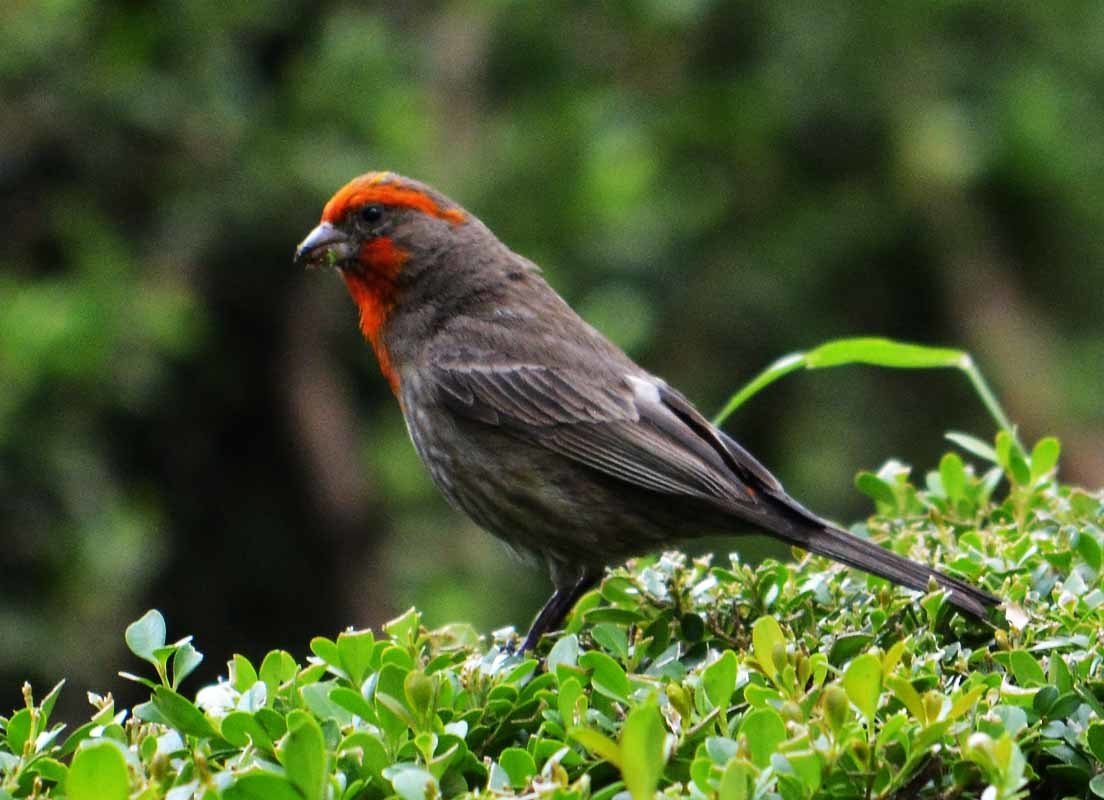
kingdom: Animalia
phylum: Chordata
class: Aves
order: Passeriformes
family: Fringillidae
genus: Haemorhous
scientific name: Haemorhous mexicanus
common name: House finch
